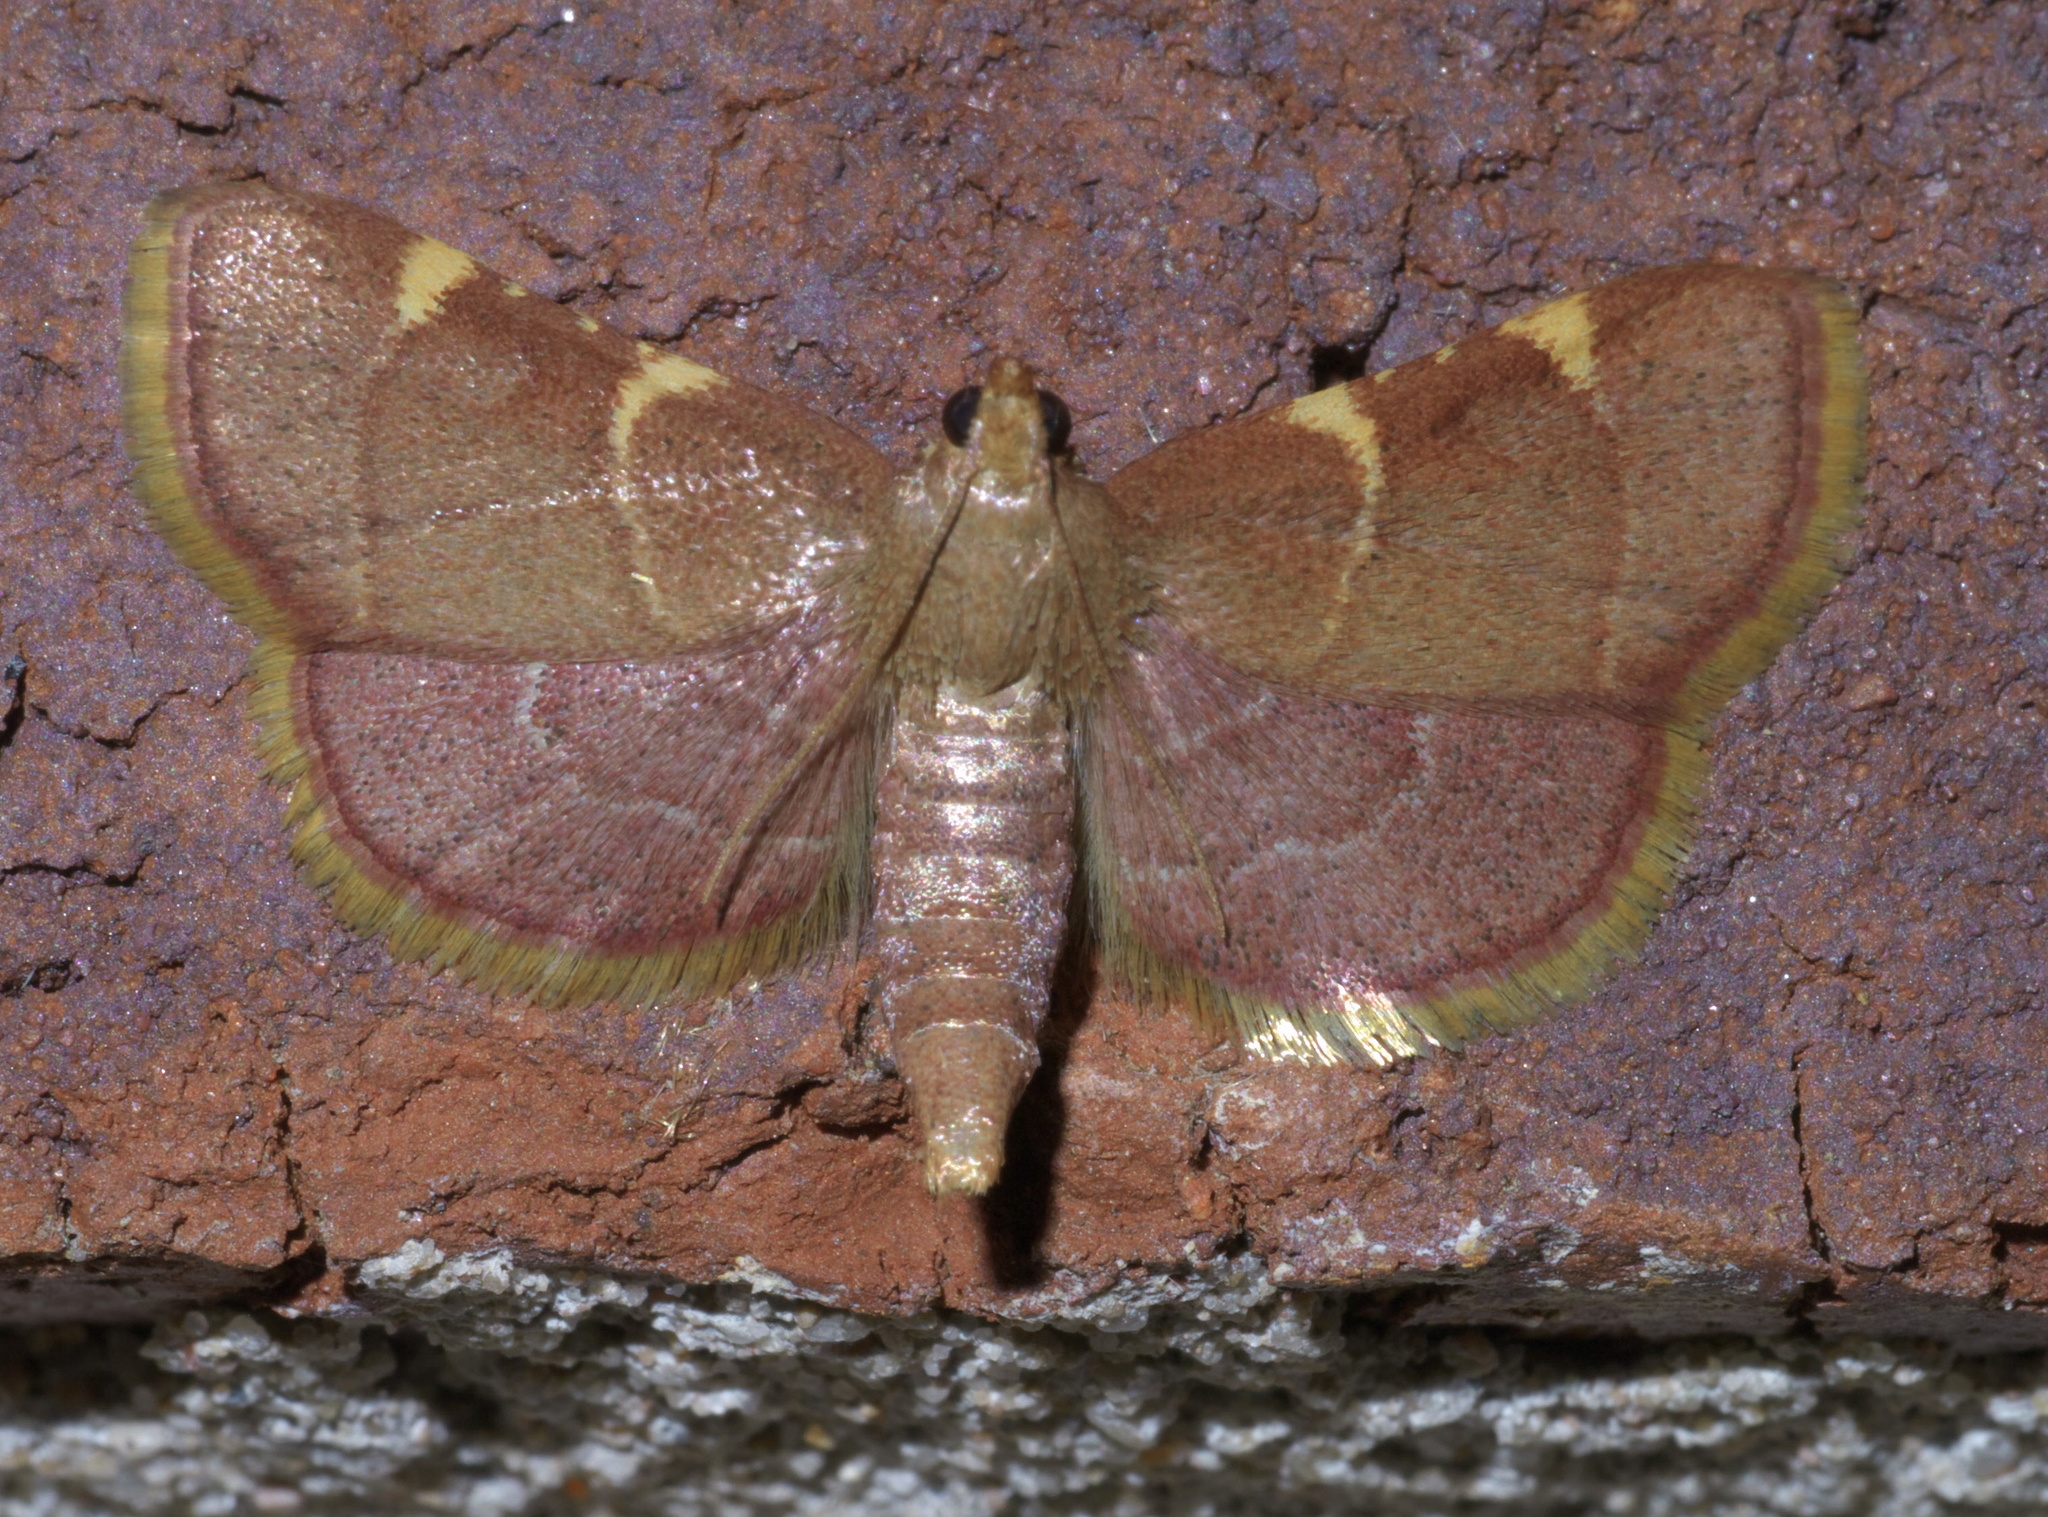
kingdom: Animalia
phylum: Arthropoda
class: Insecta
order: Lepidoptera
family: Pyralidae
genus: Hypsopygia
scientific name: Hypsopygia olinalis
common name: Yellow-fringed dolichomia moth
